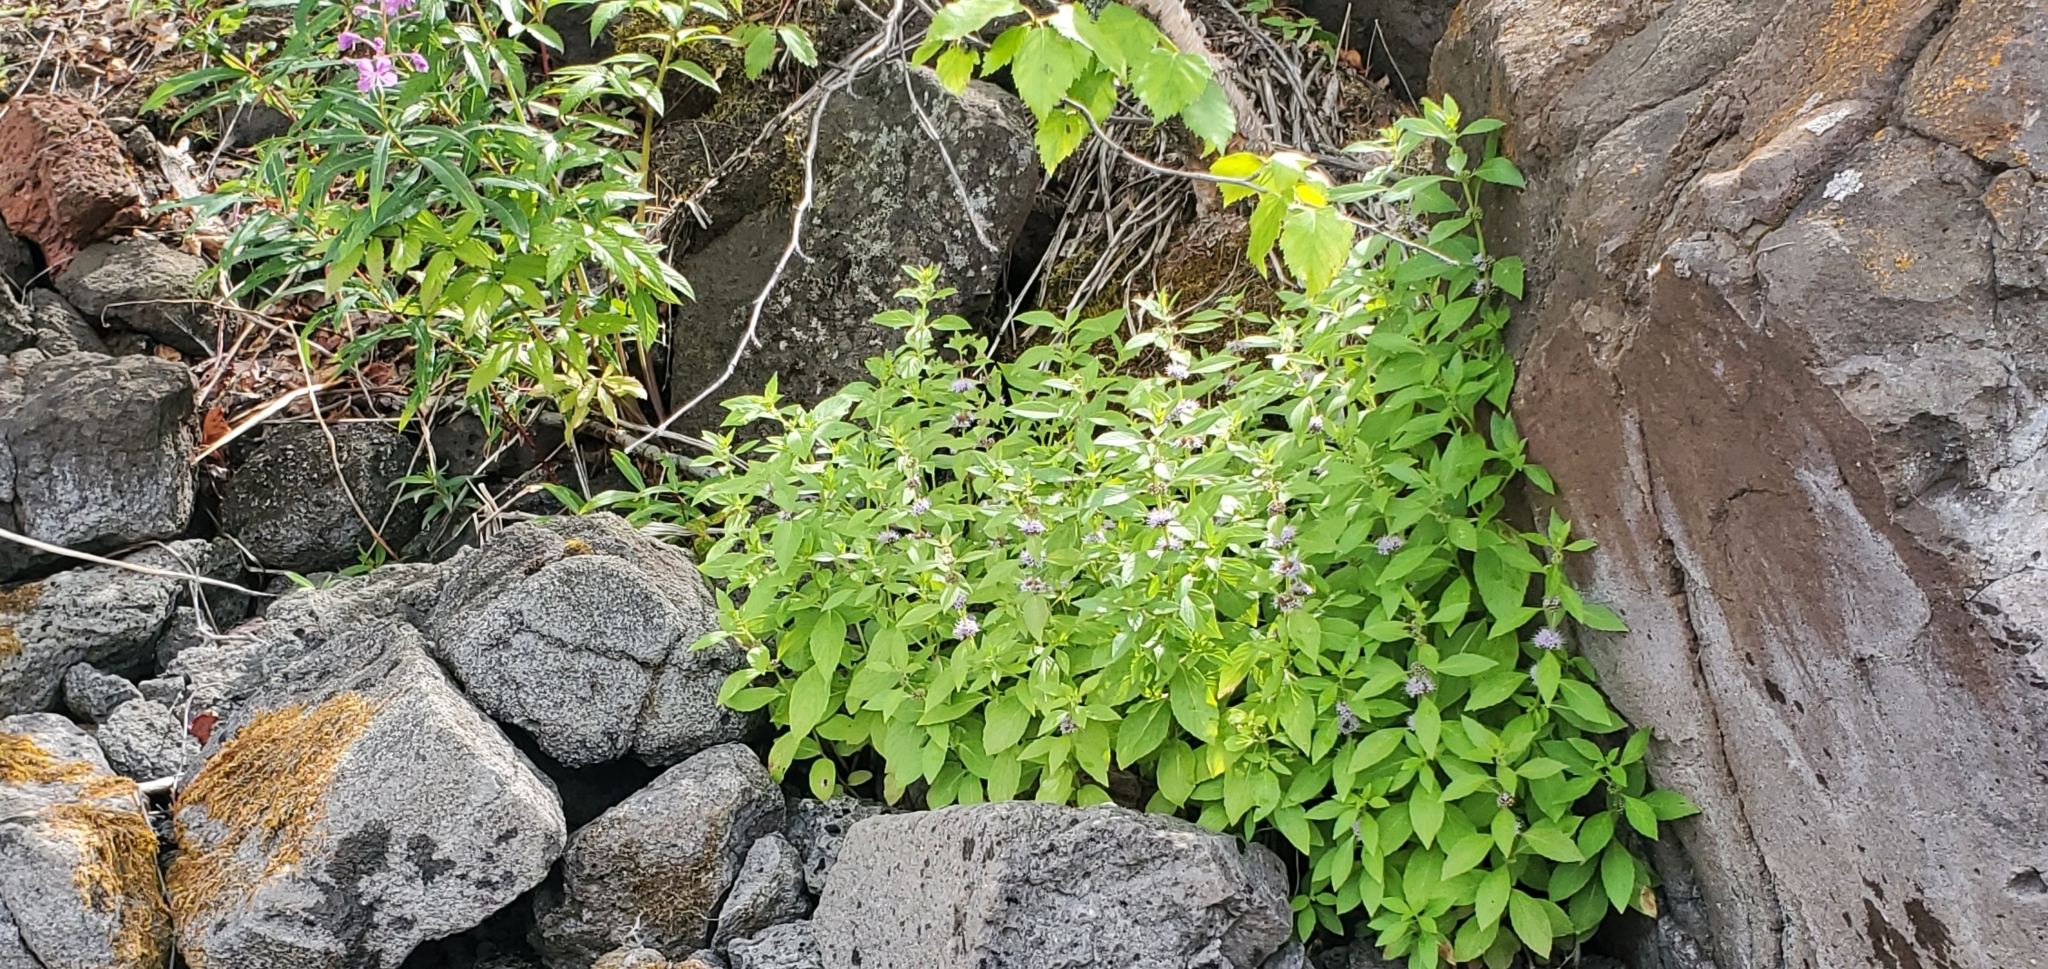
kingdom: Plantae
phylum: Tracheophyta
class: Magnoliopsida
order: Lamiales
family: Lamiaceae
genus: Mentha
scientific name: Mentha canadensis
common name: American corn mint
